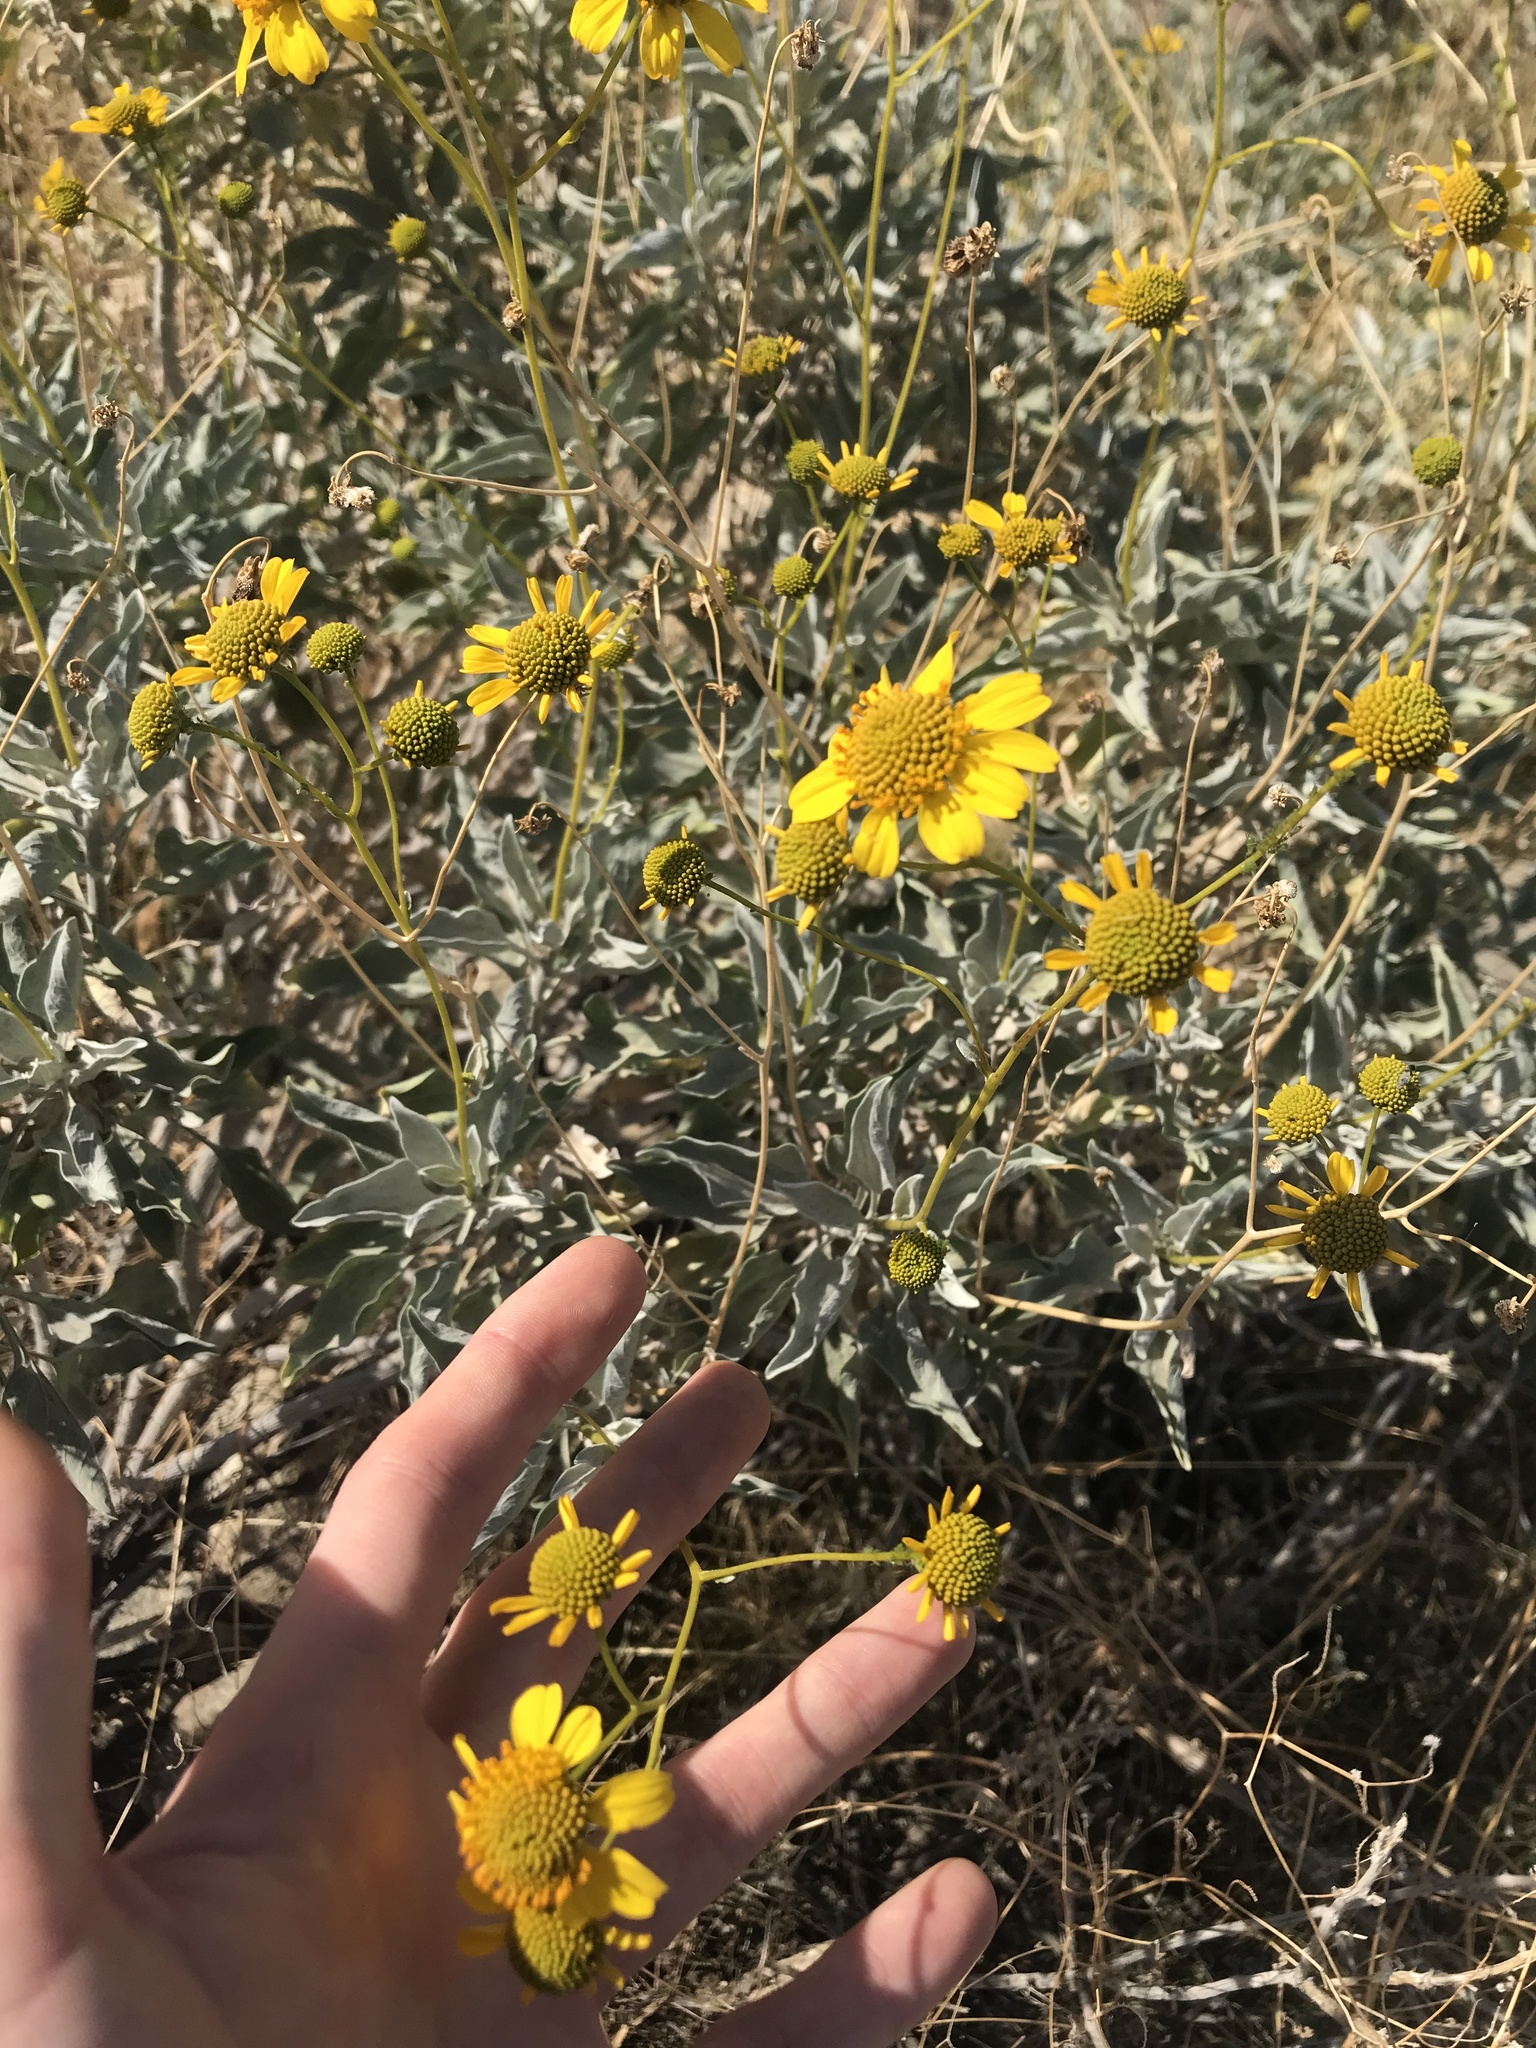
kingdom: Plantae
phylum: Tracheophyta
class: Magnoliopsida
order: Asterales
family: Asteraceae
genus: Encelia
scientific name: Encelia farinosa
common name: Brittlebush
